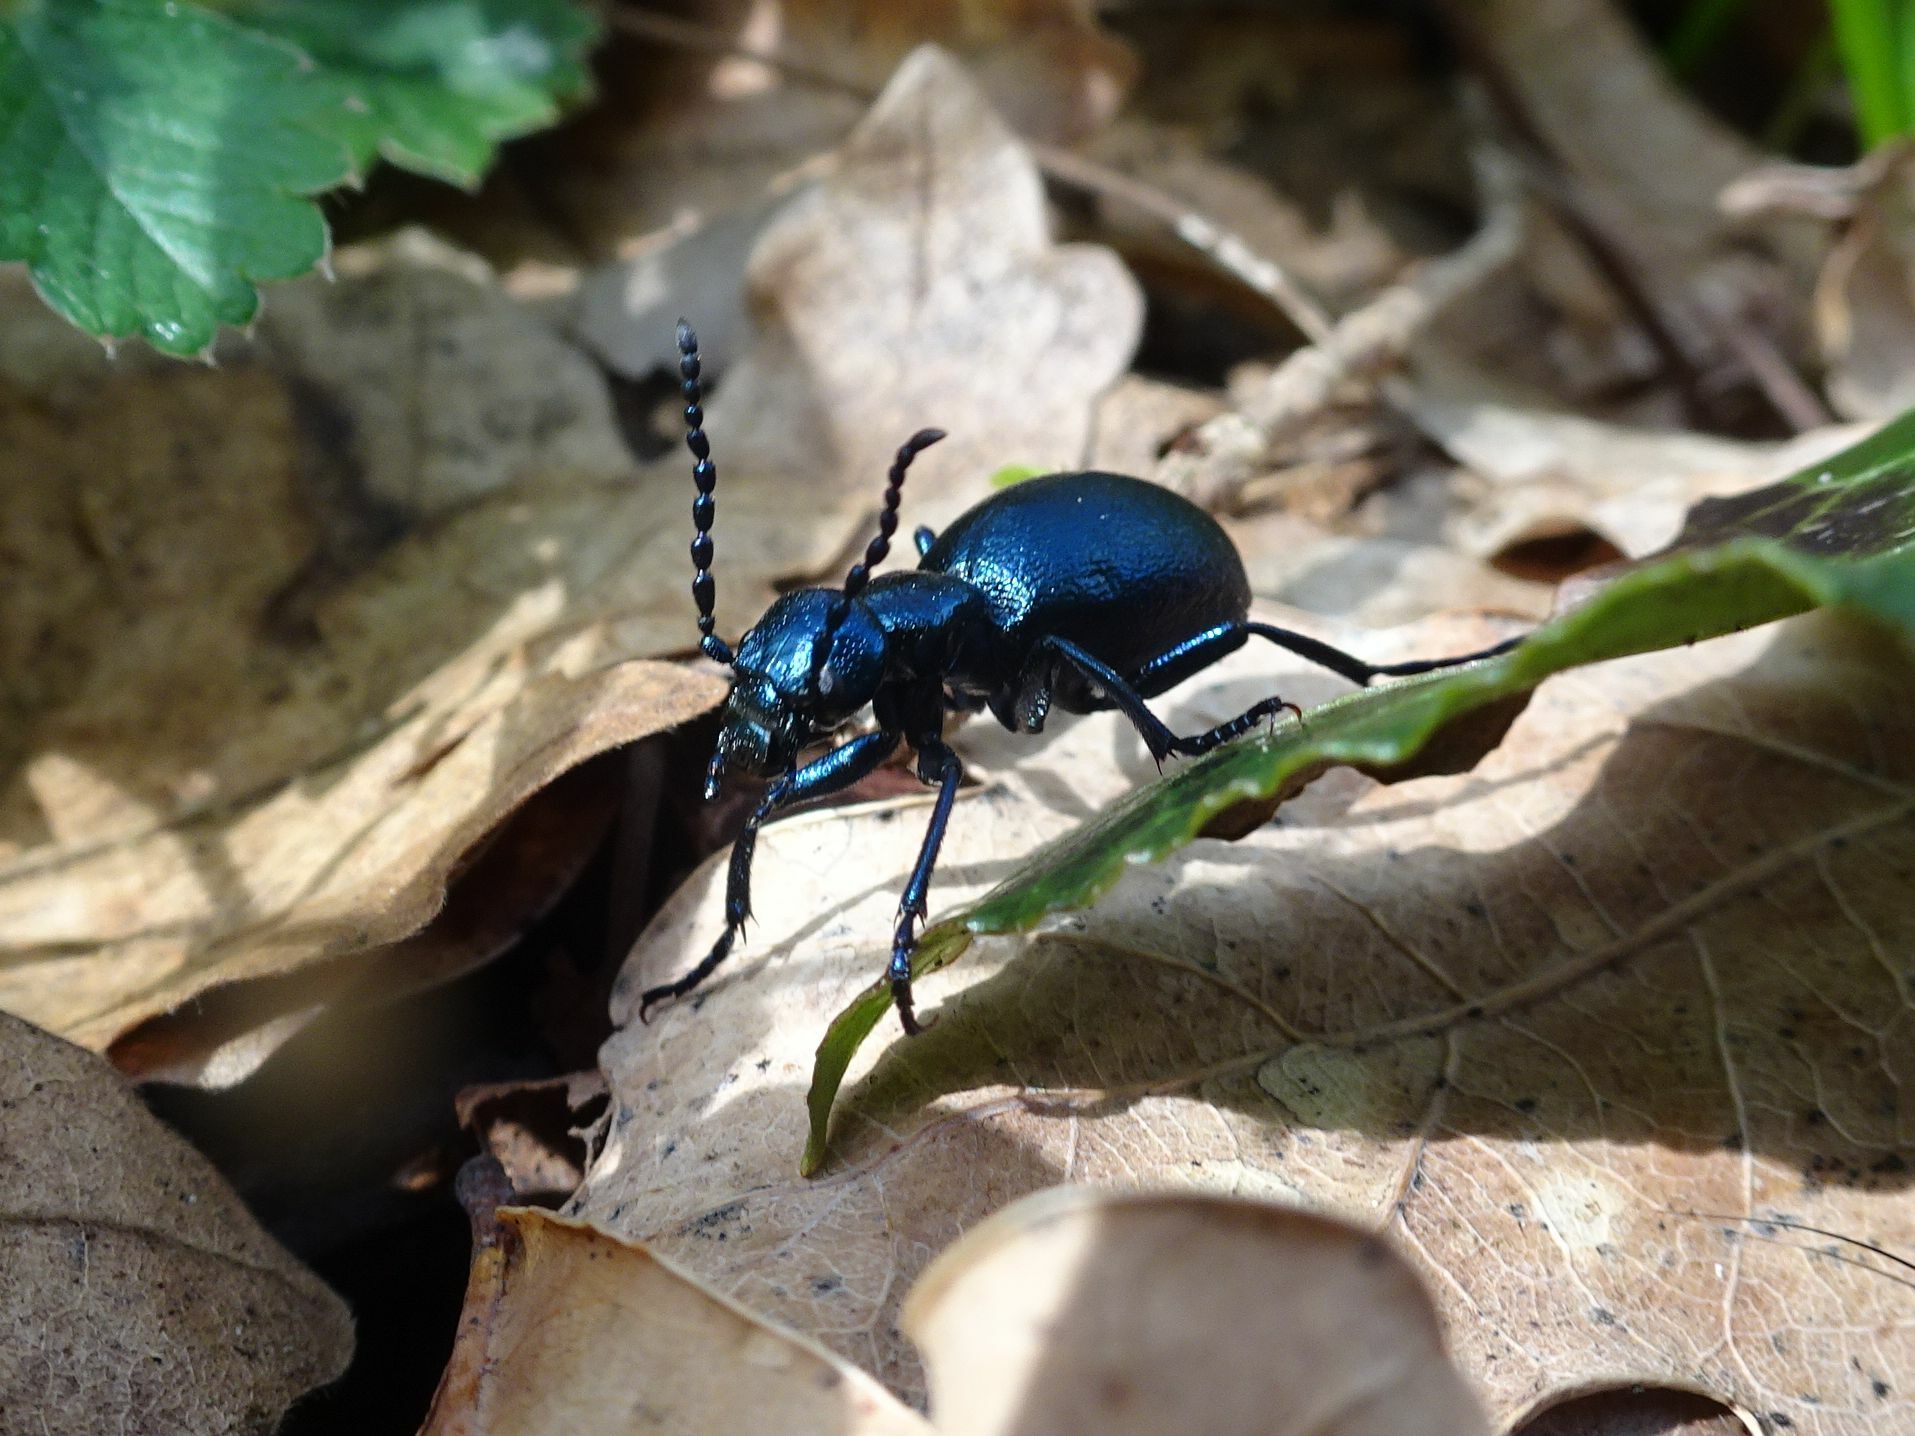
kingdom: Animalia
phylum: Arthropoda
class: Insecta
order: Coleoptera
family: Meloidae
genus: Meloe
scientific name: Meloe violaceus
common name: Violet oil-beetle
